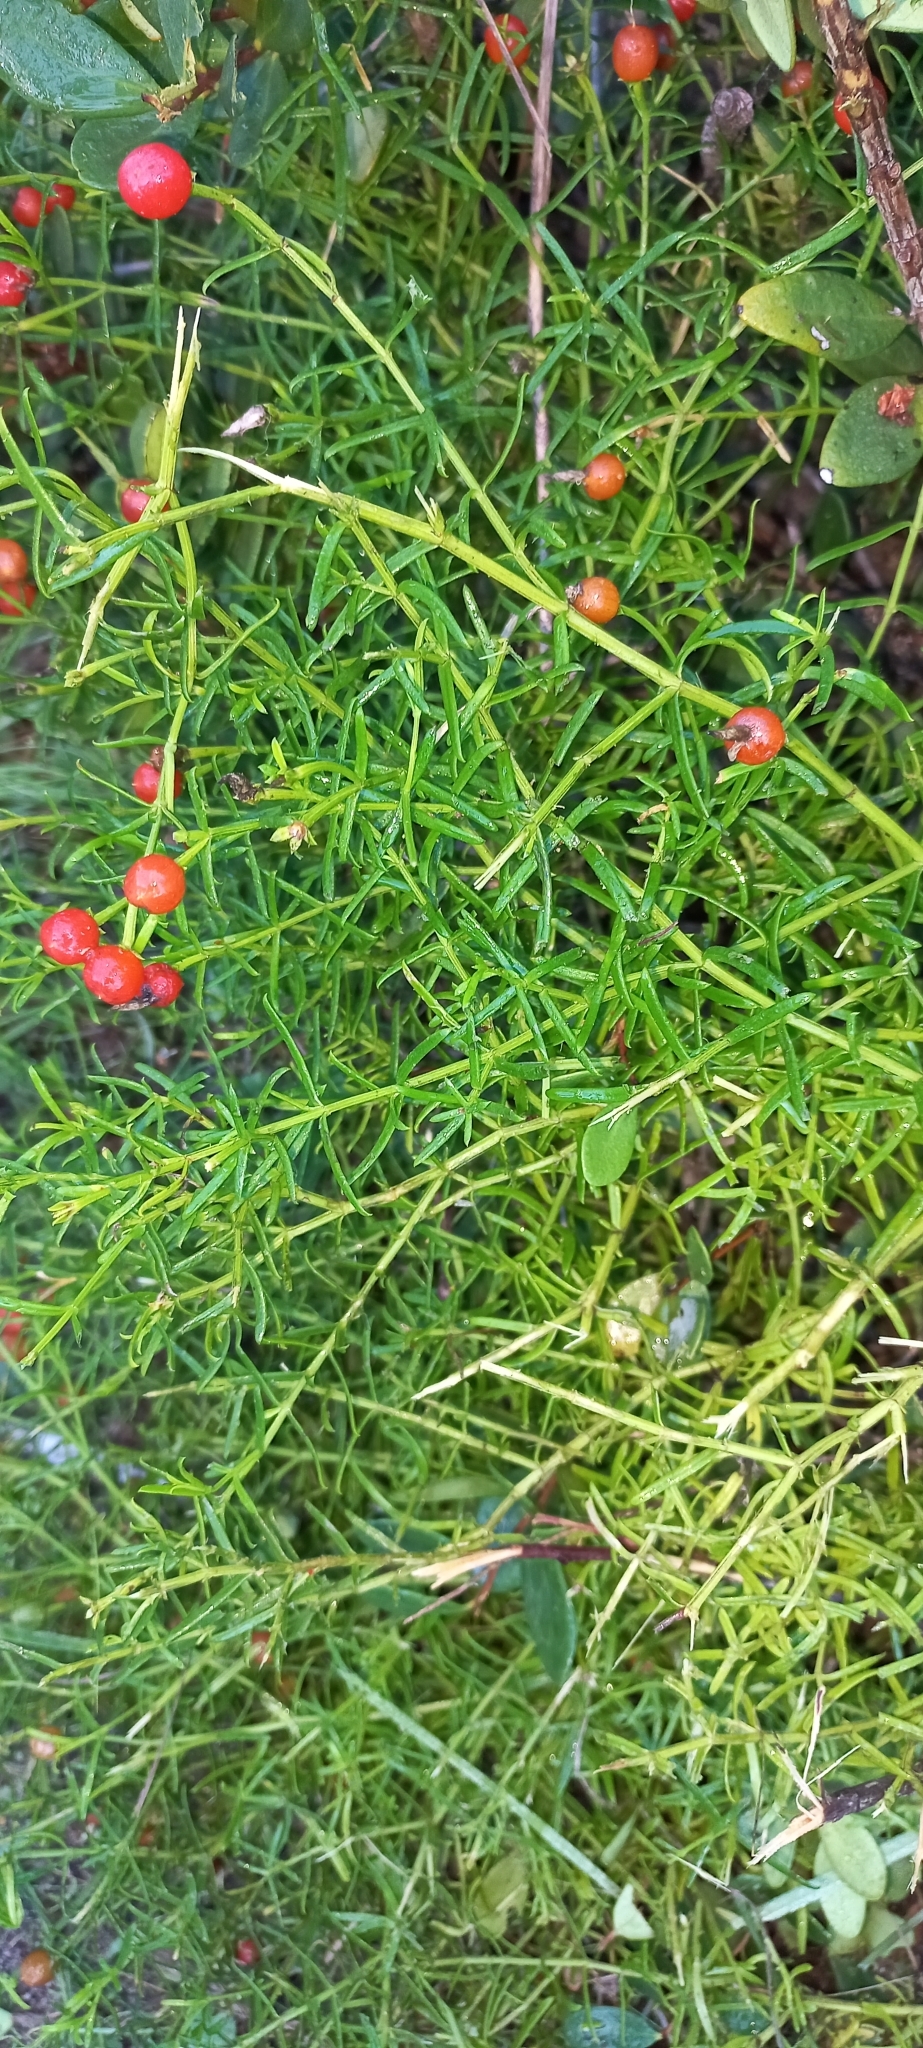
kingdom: Plantae
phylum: Tracheophyta
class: Magnoliopsida
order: Gentianales
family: Gentianaceae
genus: Chironia
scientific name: Chironia baccifera
